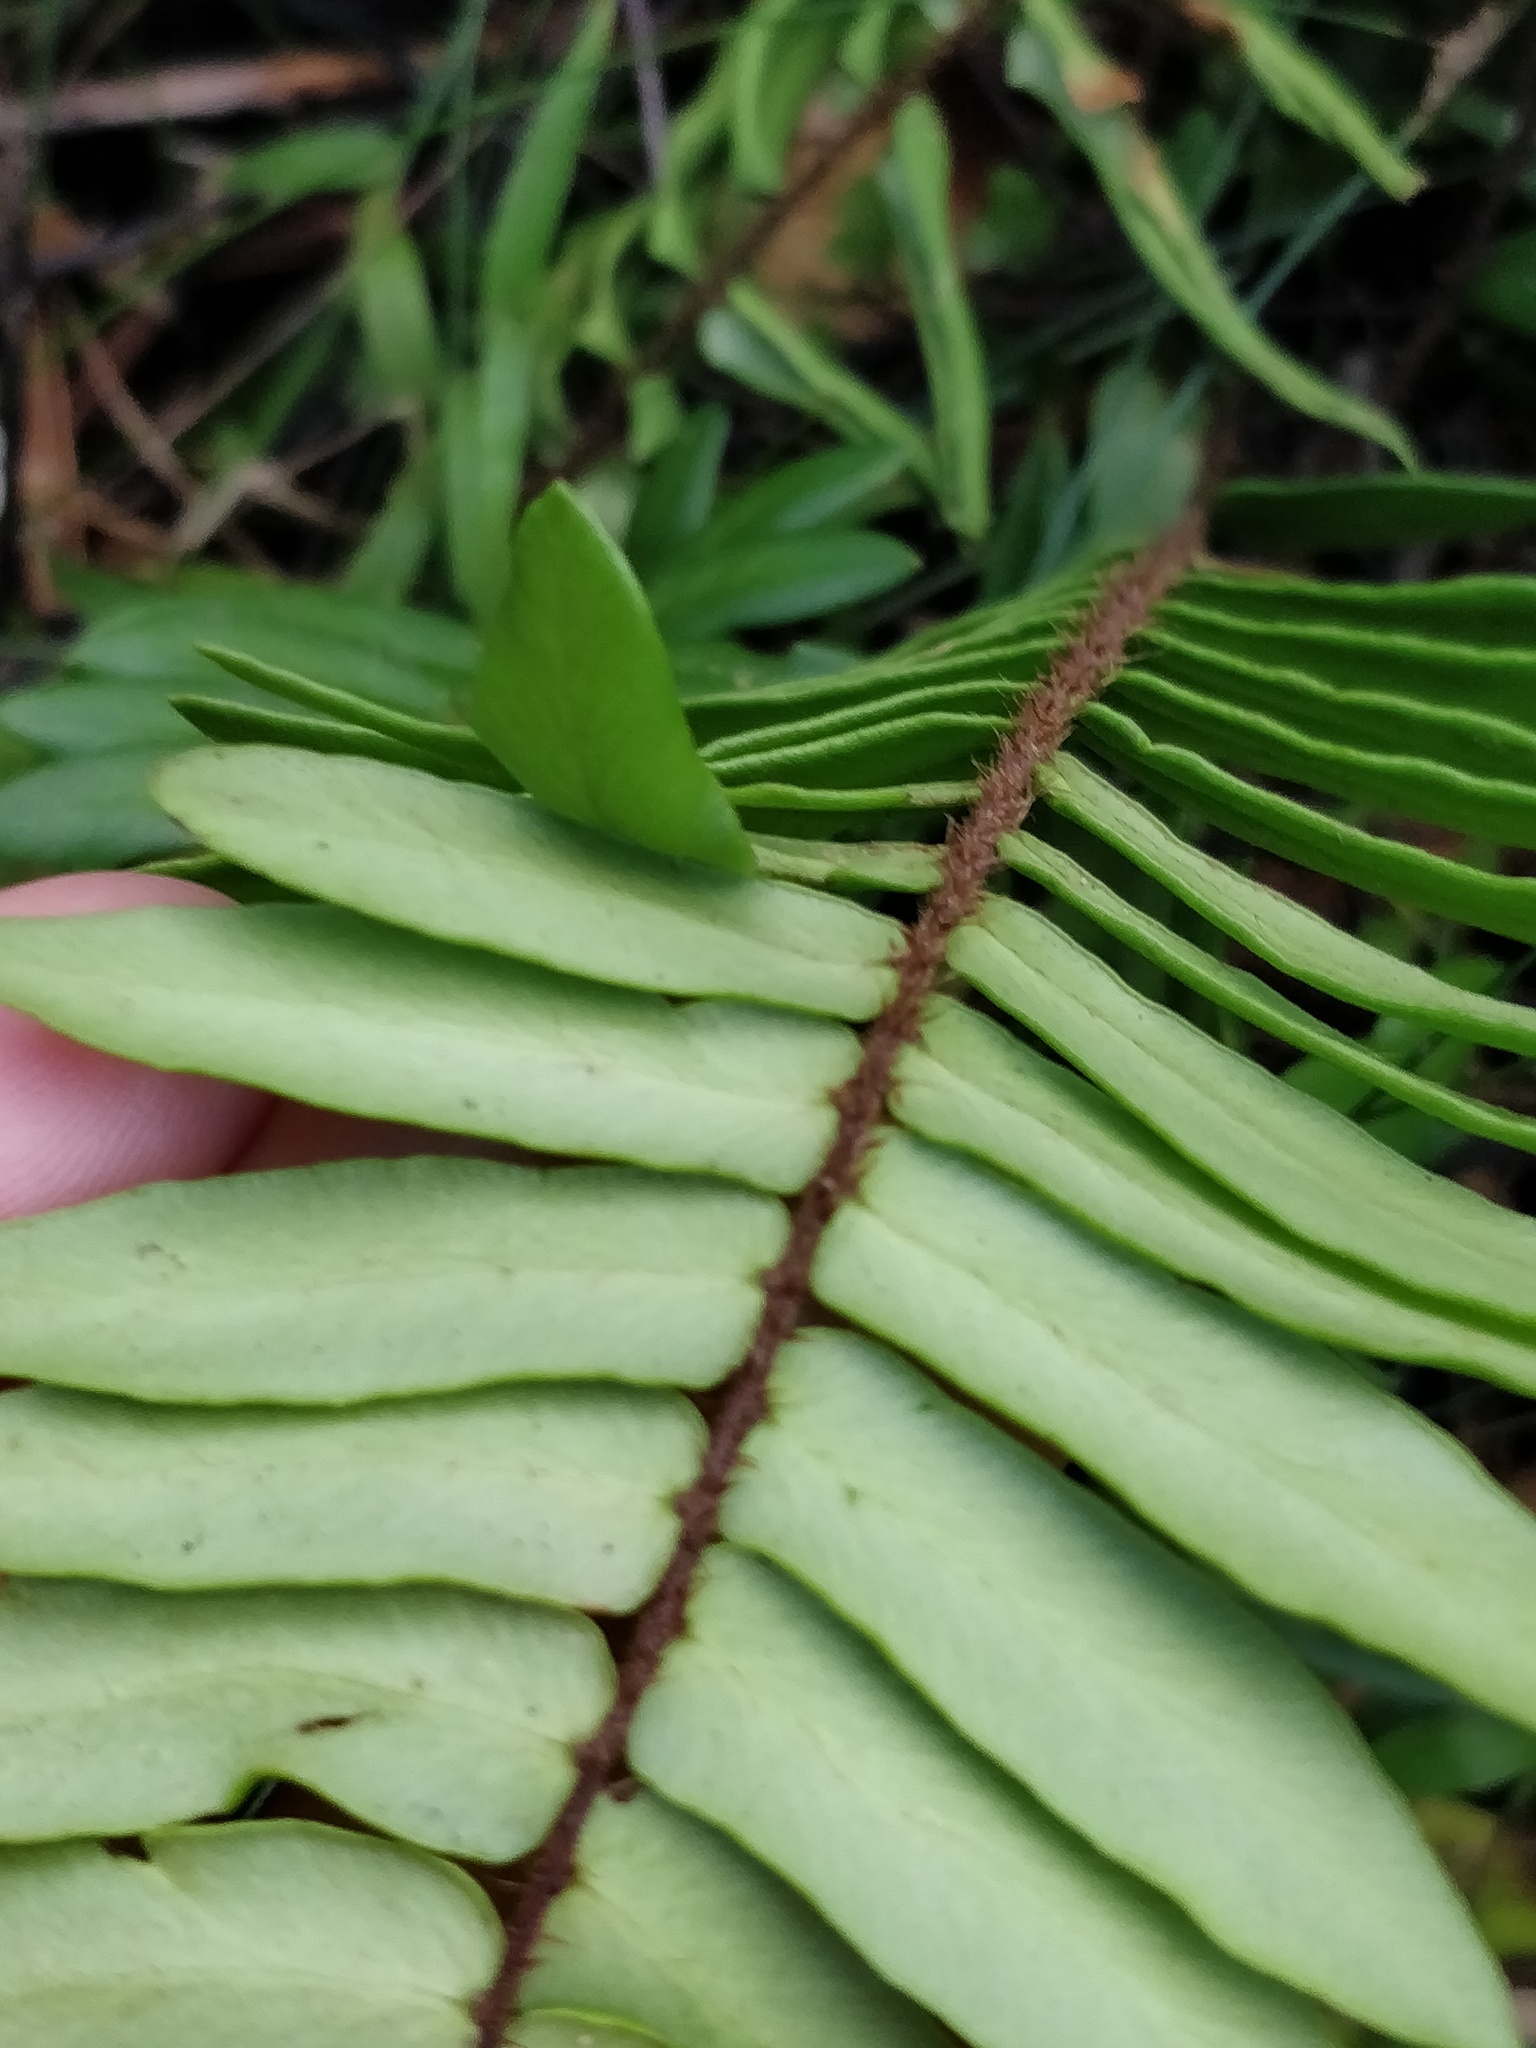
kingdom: Plantae
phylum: Tracheophyta
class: Polypodiopsida
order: Polypodiales
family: Pteridaceae
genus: Pellaea
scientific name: Pellaea falcata
